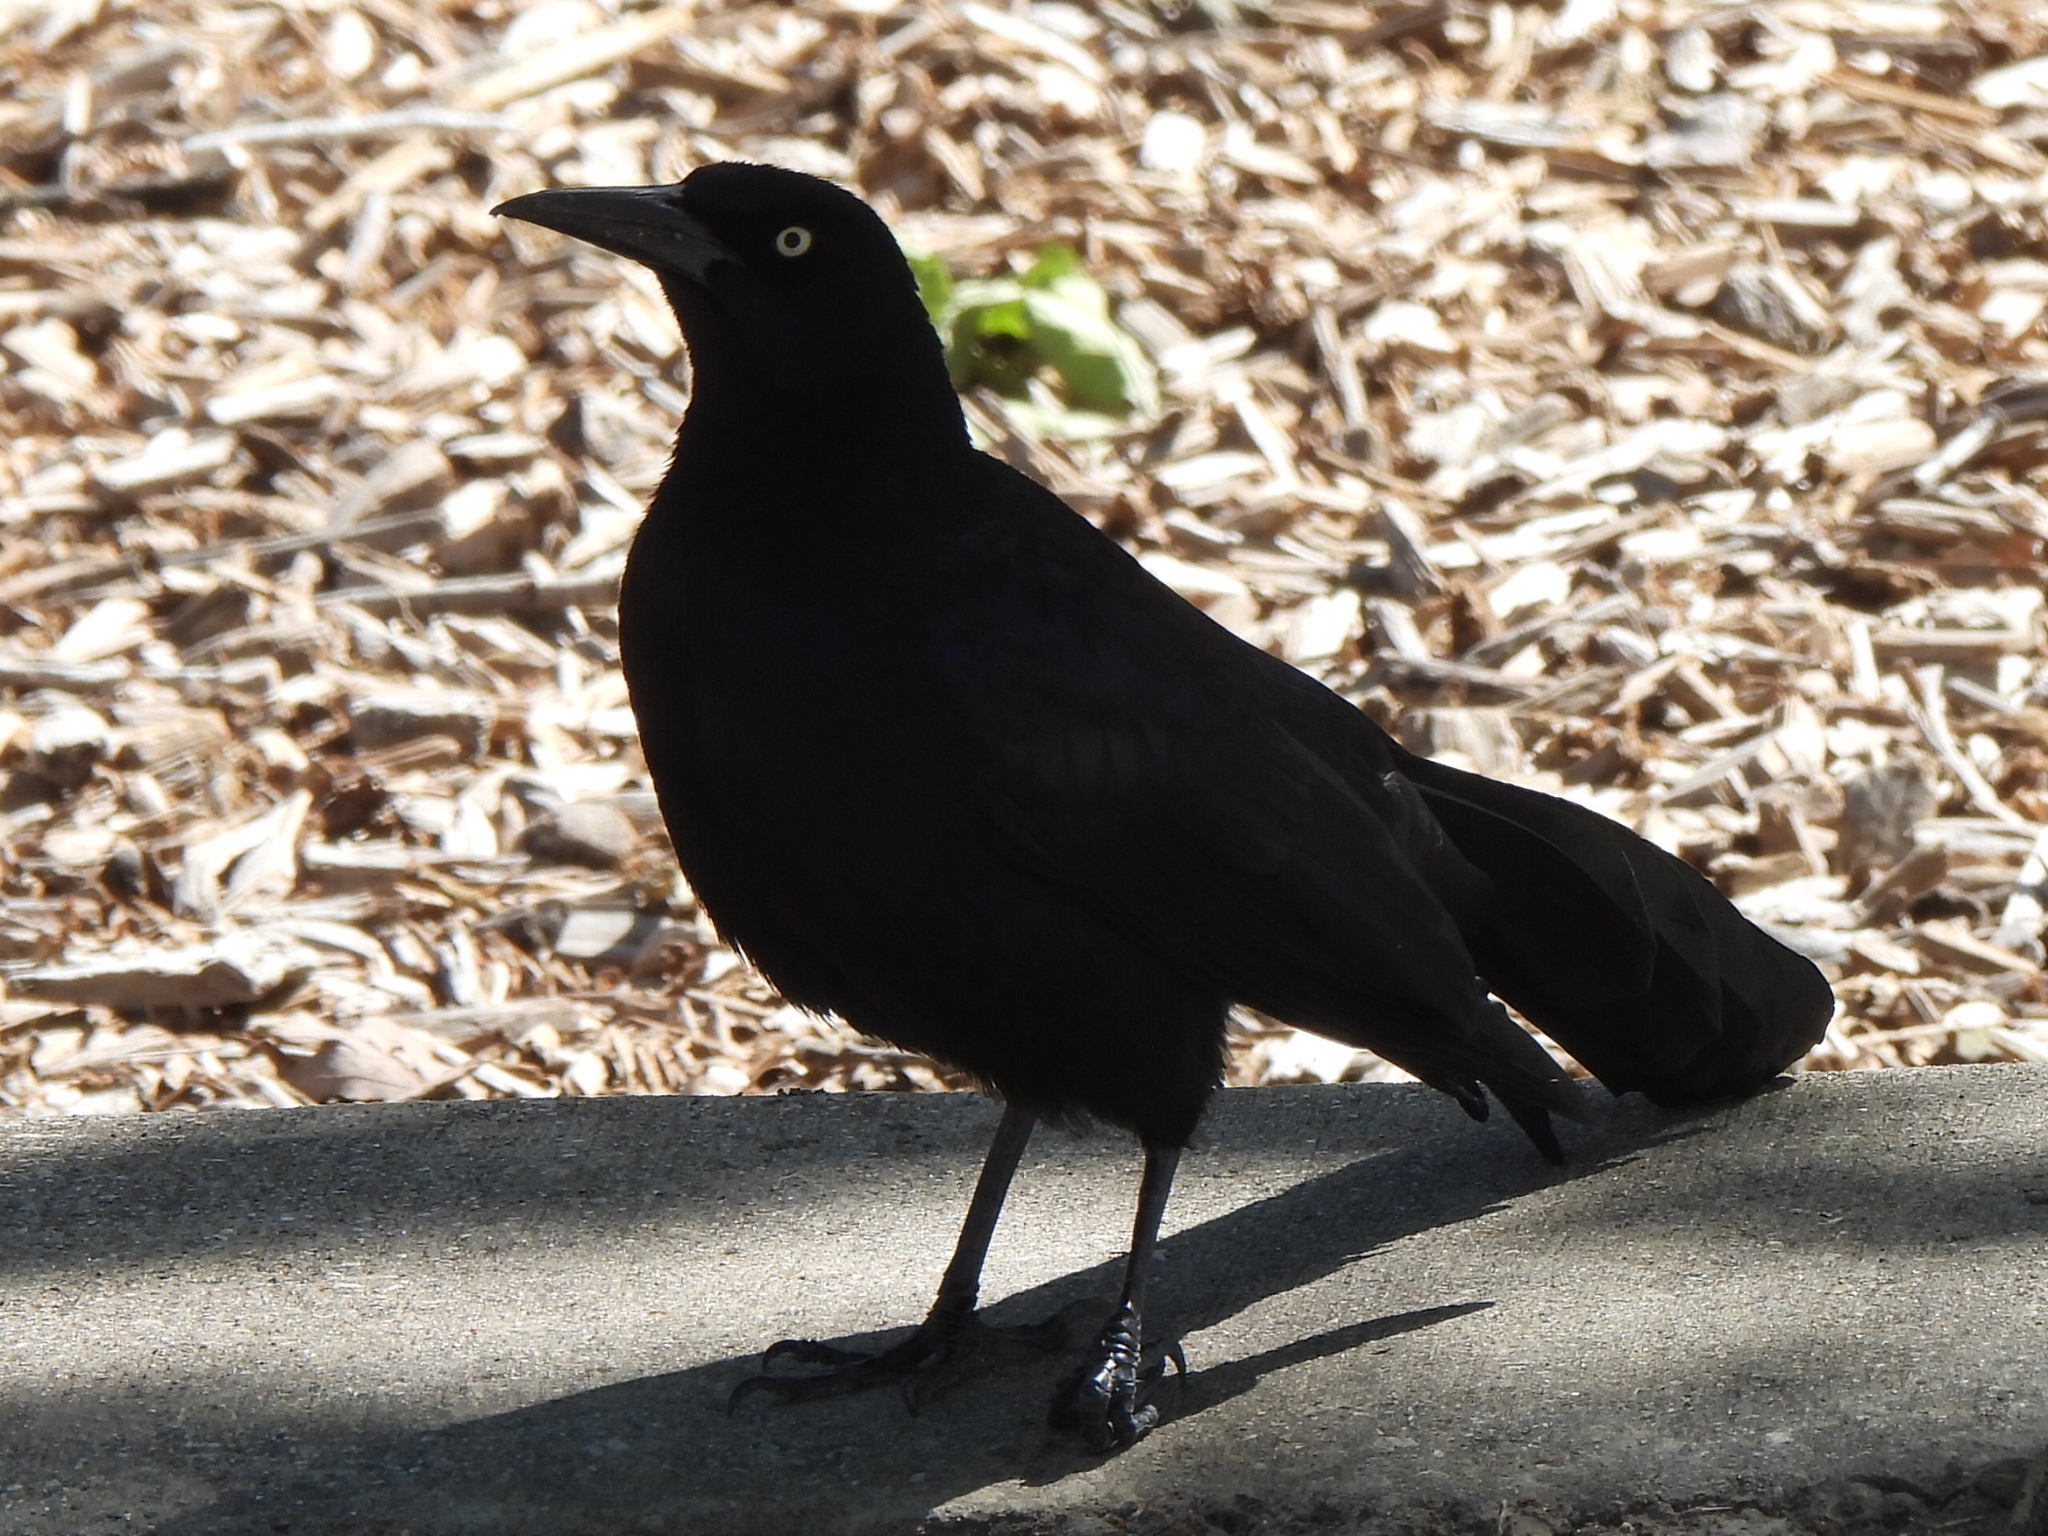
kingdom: Animalia
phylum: Chordata
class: Aves
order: Passeriformes
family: Icteridae
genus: Quiscalus
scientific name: Quiscalus mexicanus
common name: Great-tailed grackle
